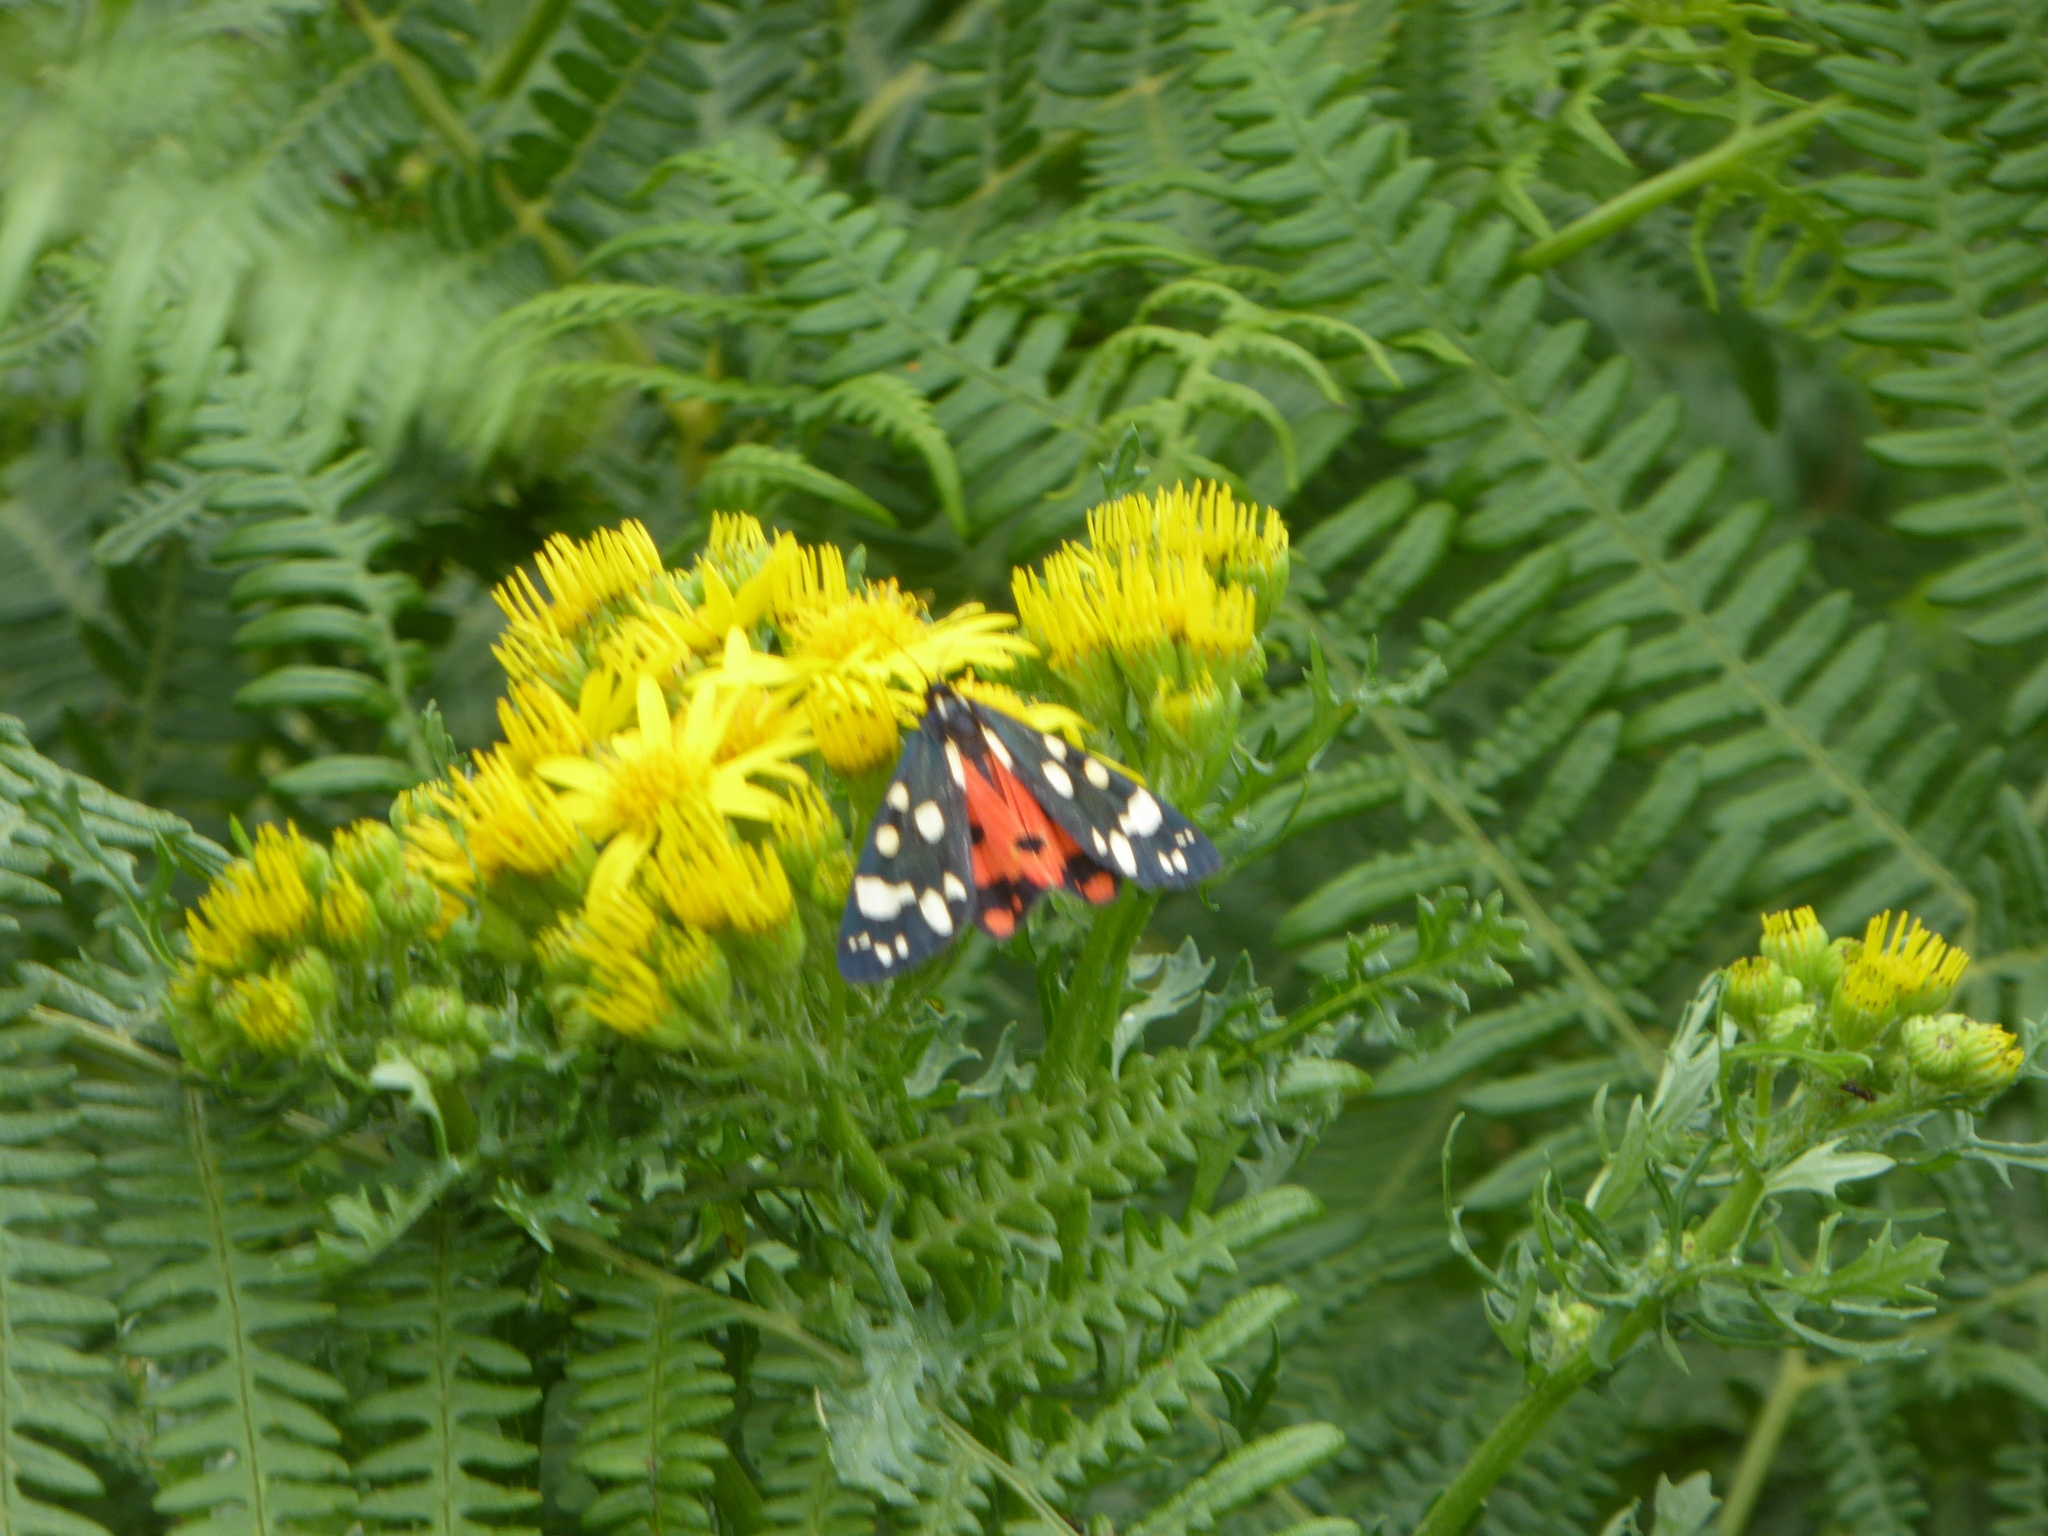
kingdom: Animalia
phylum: Arthropoda
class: Insecta
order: Lepidoptera
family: Erebidae
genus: Callimorpha
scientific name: Callimorpha dominula
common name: Scarlet tiger
